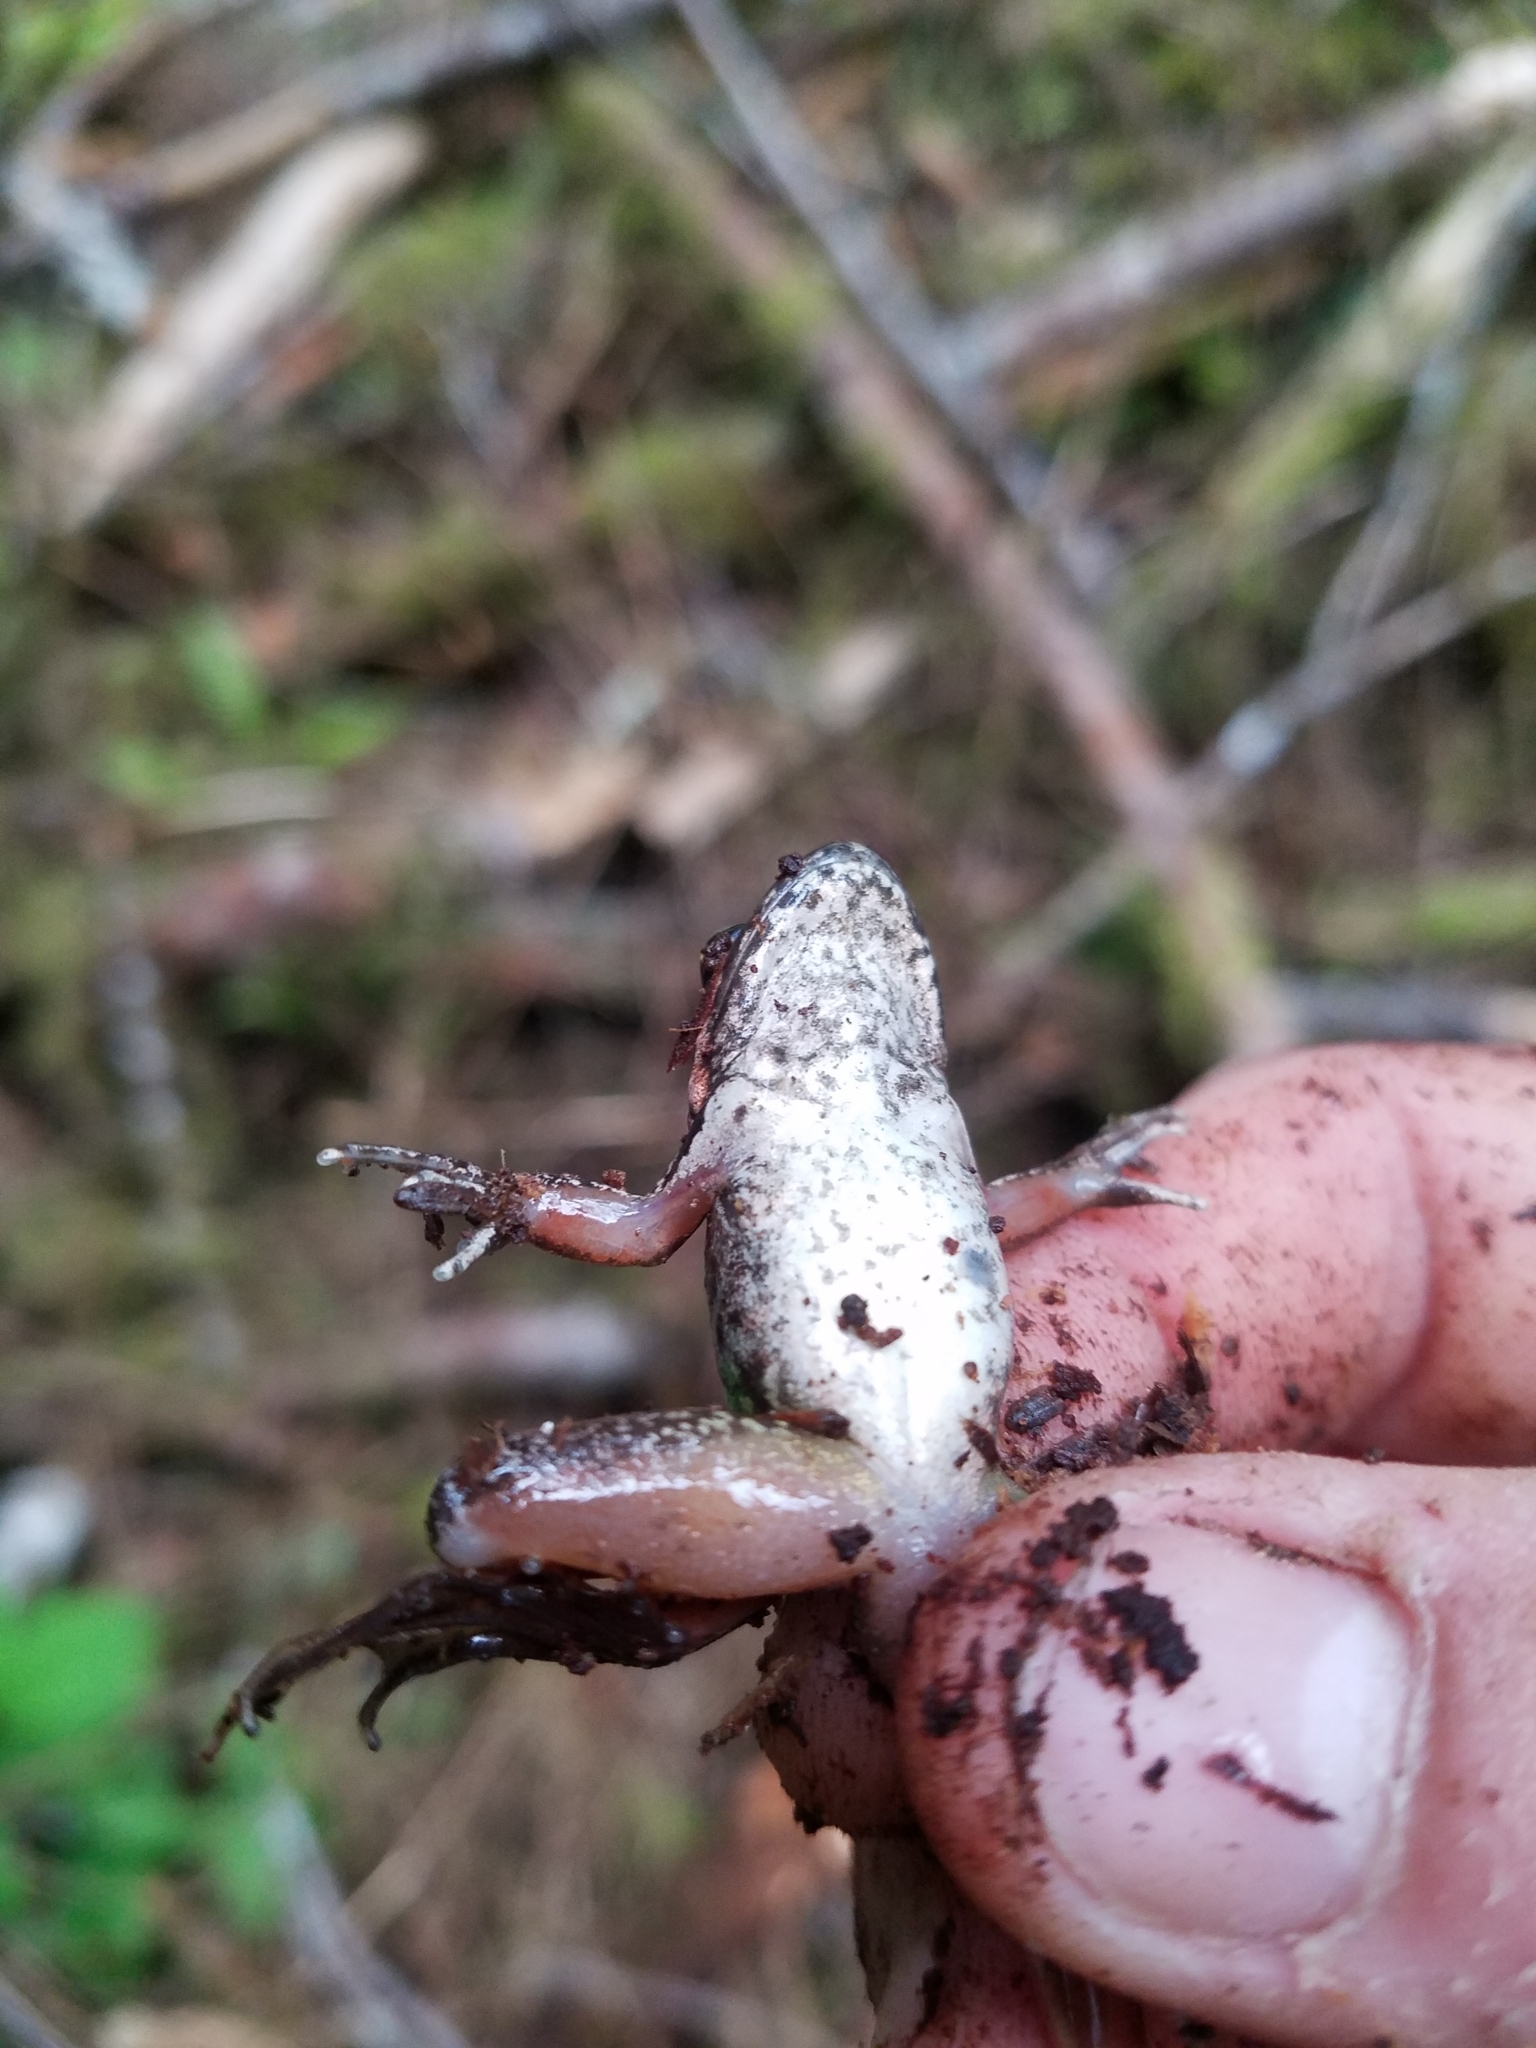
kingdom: Animalia
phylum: Chordata
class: Amphibia
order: Anura
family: Ranidae
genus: Rana
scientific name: Rana aurora
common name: Red-legged frog
